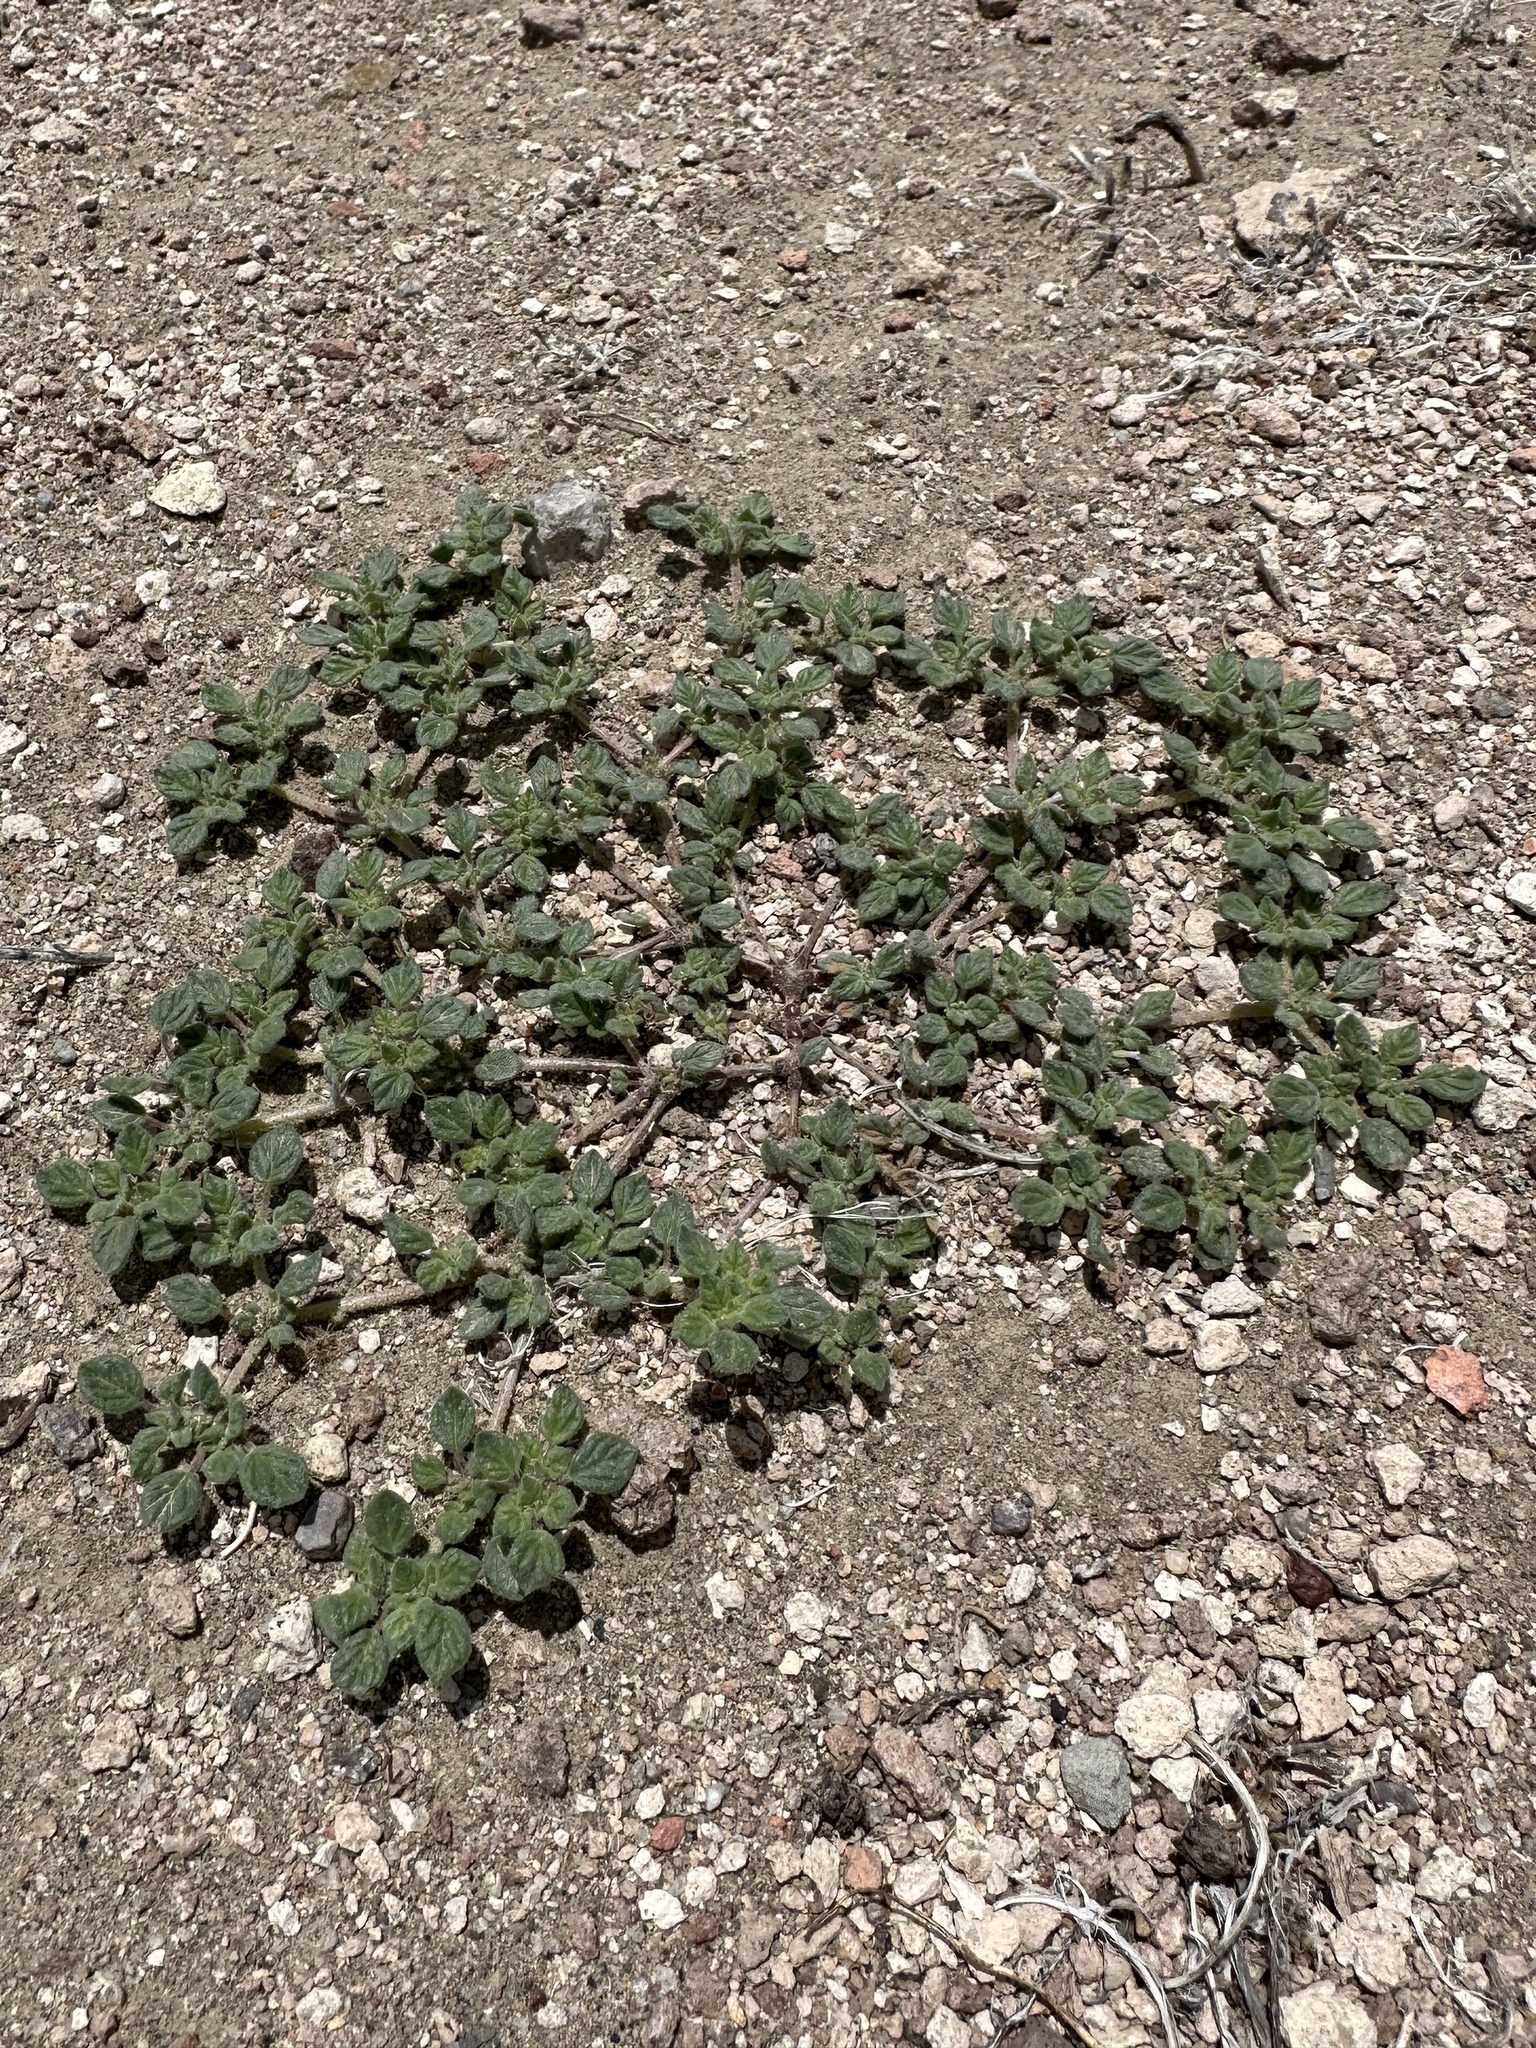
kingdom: Plantae
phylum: Tracheophyta
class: Magnoliopsida
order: Boraginales
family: Ehretiaceae
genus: Tiquilia
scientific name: Tiquilia nuttallii
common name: Rosette tiquilia
